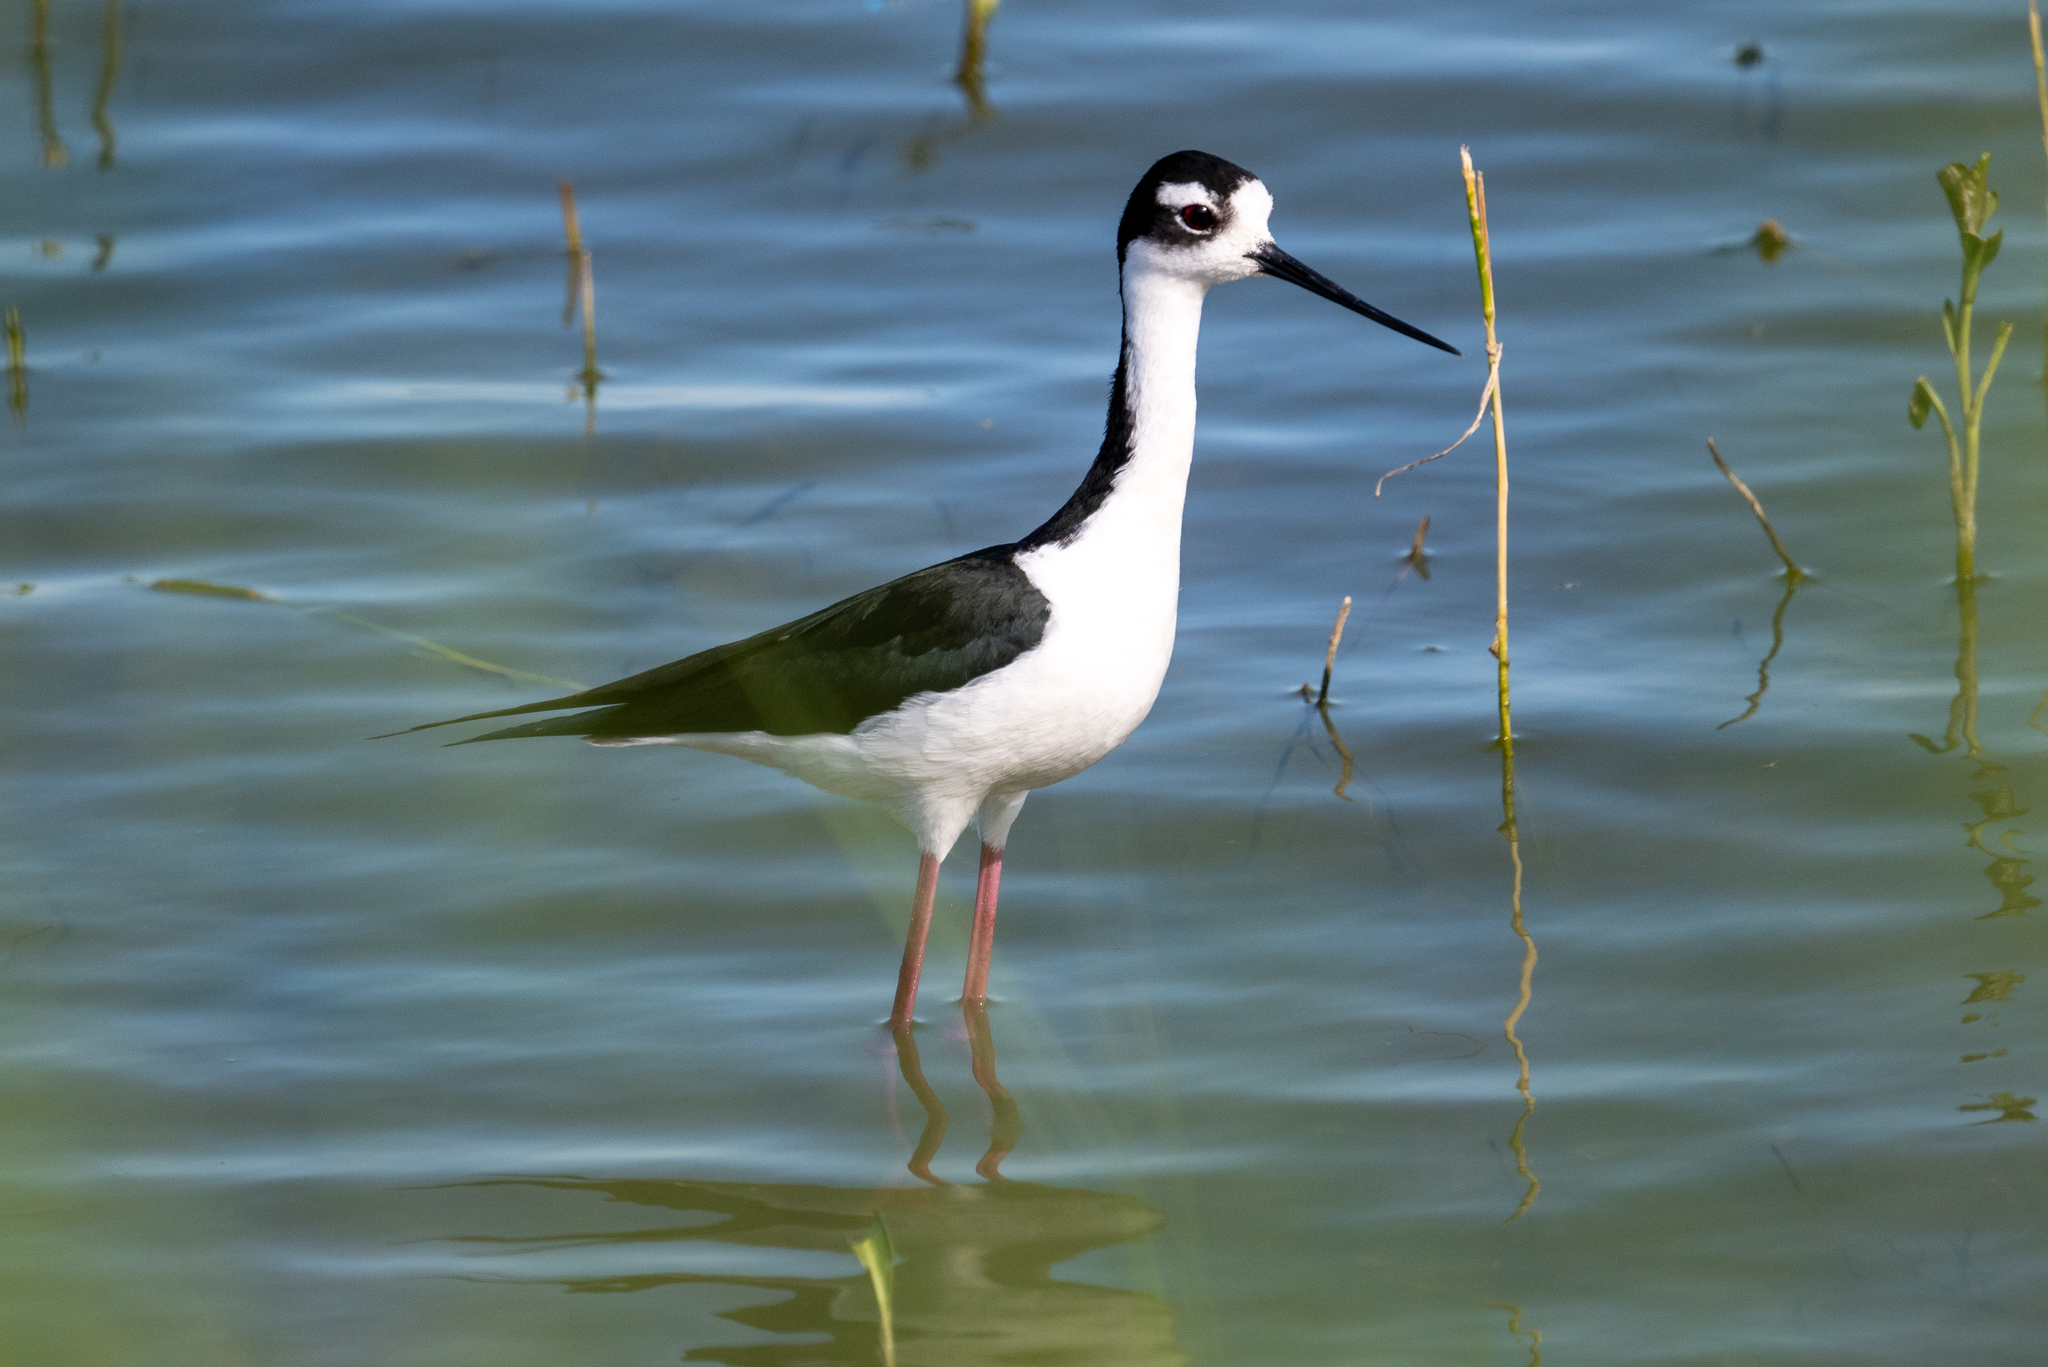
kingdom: Animalia
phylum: Chordata
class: Aves
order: Charadriiformes
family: Recurvirostridae
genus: Himantopus
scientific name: Himantopus mexicanus
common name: Black-necked stilt
